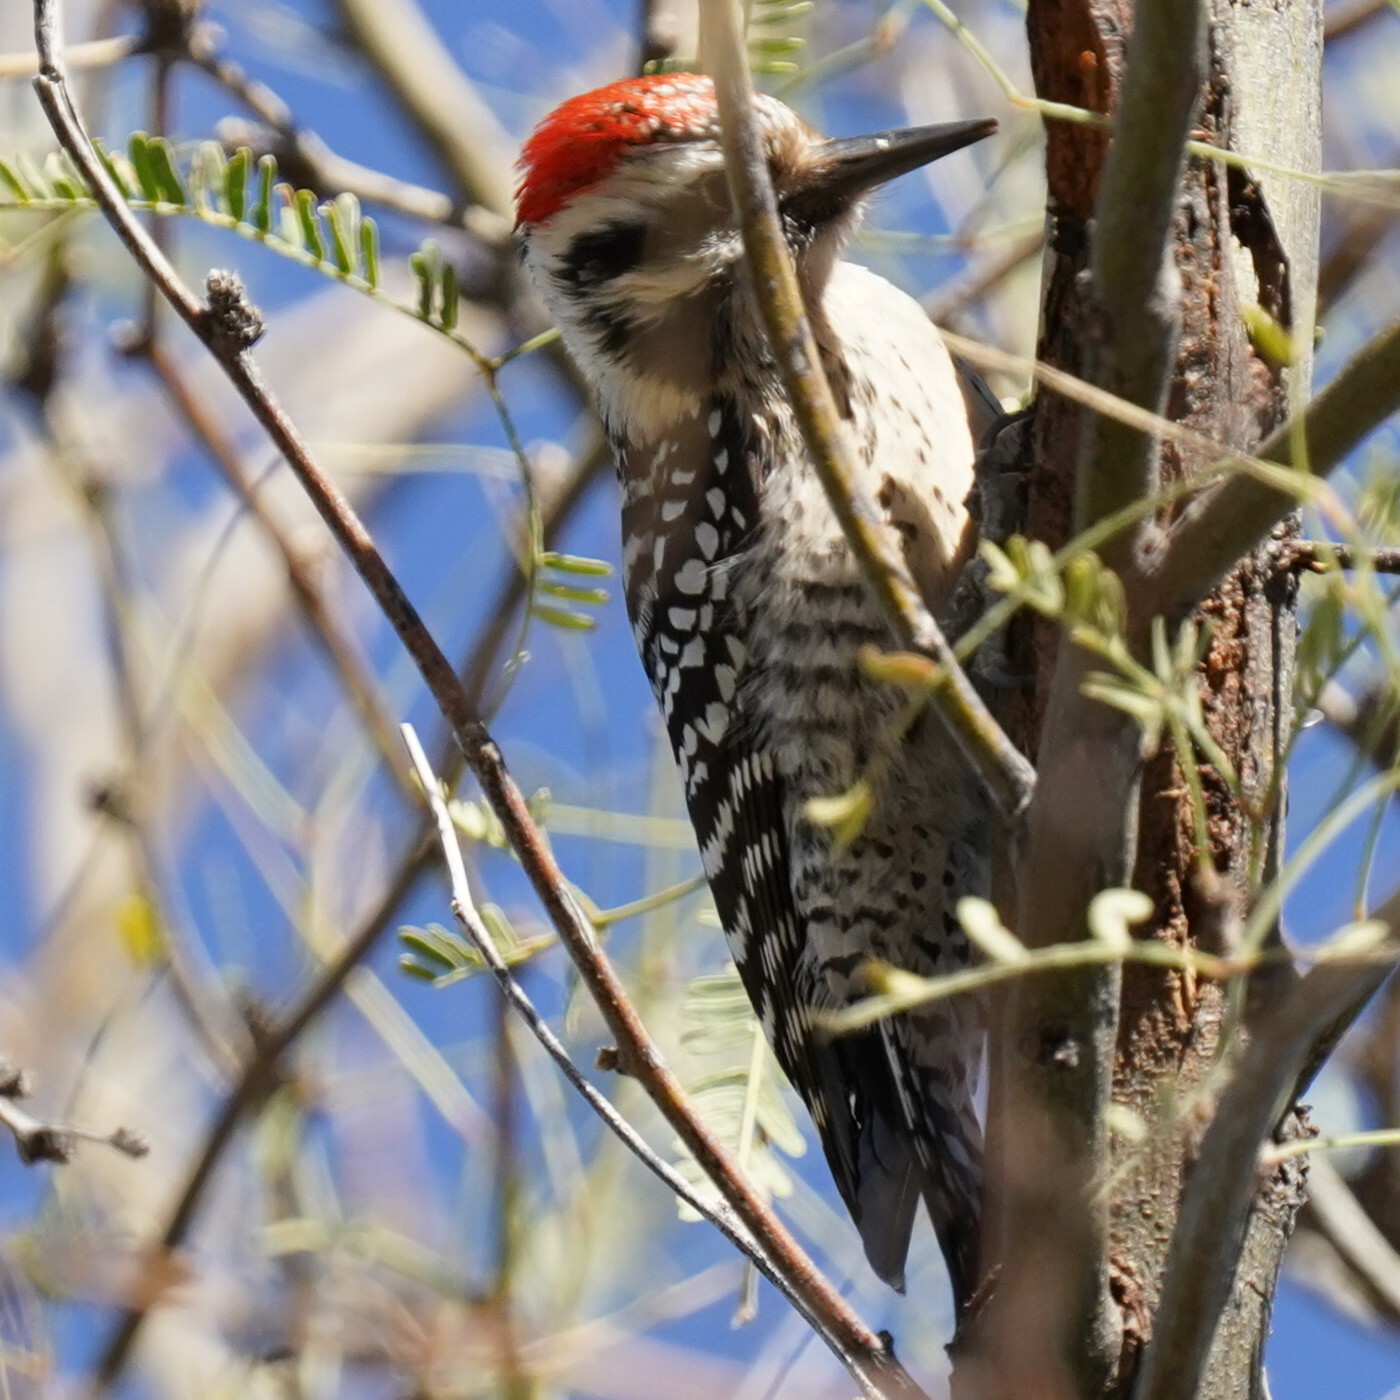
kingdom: Animalia
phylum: Chordata
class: Aves
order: Piciformes
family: Picidae
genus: Dryobates
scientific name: Dryobates scalaris
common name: Ladder-backed woodpecker
